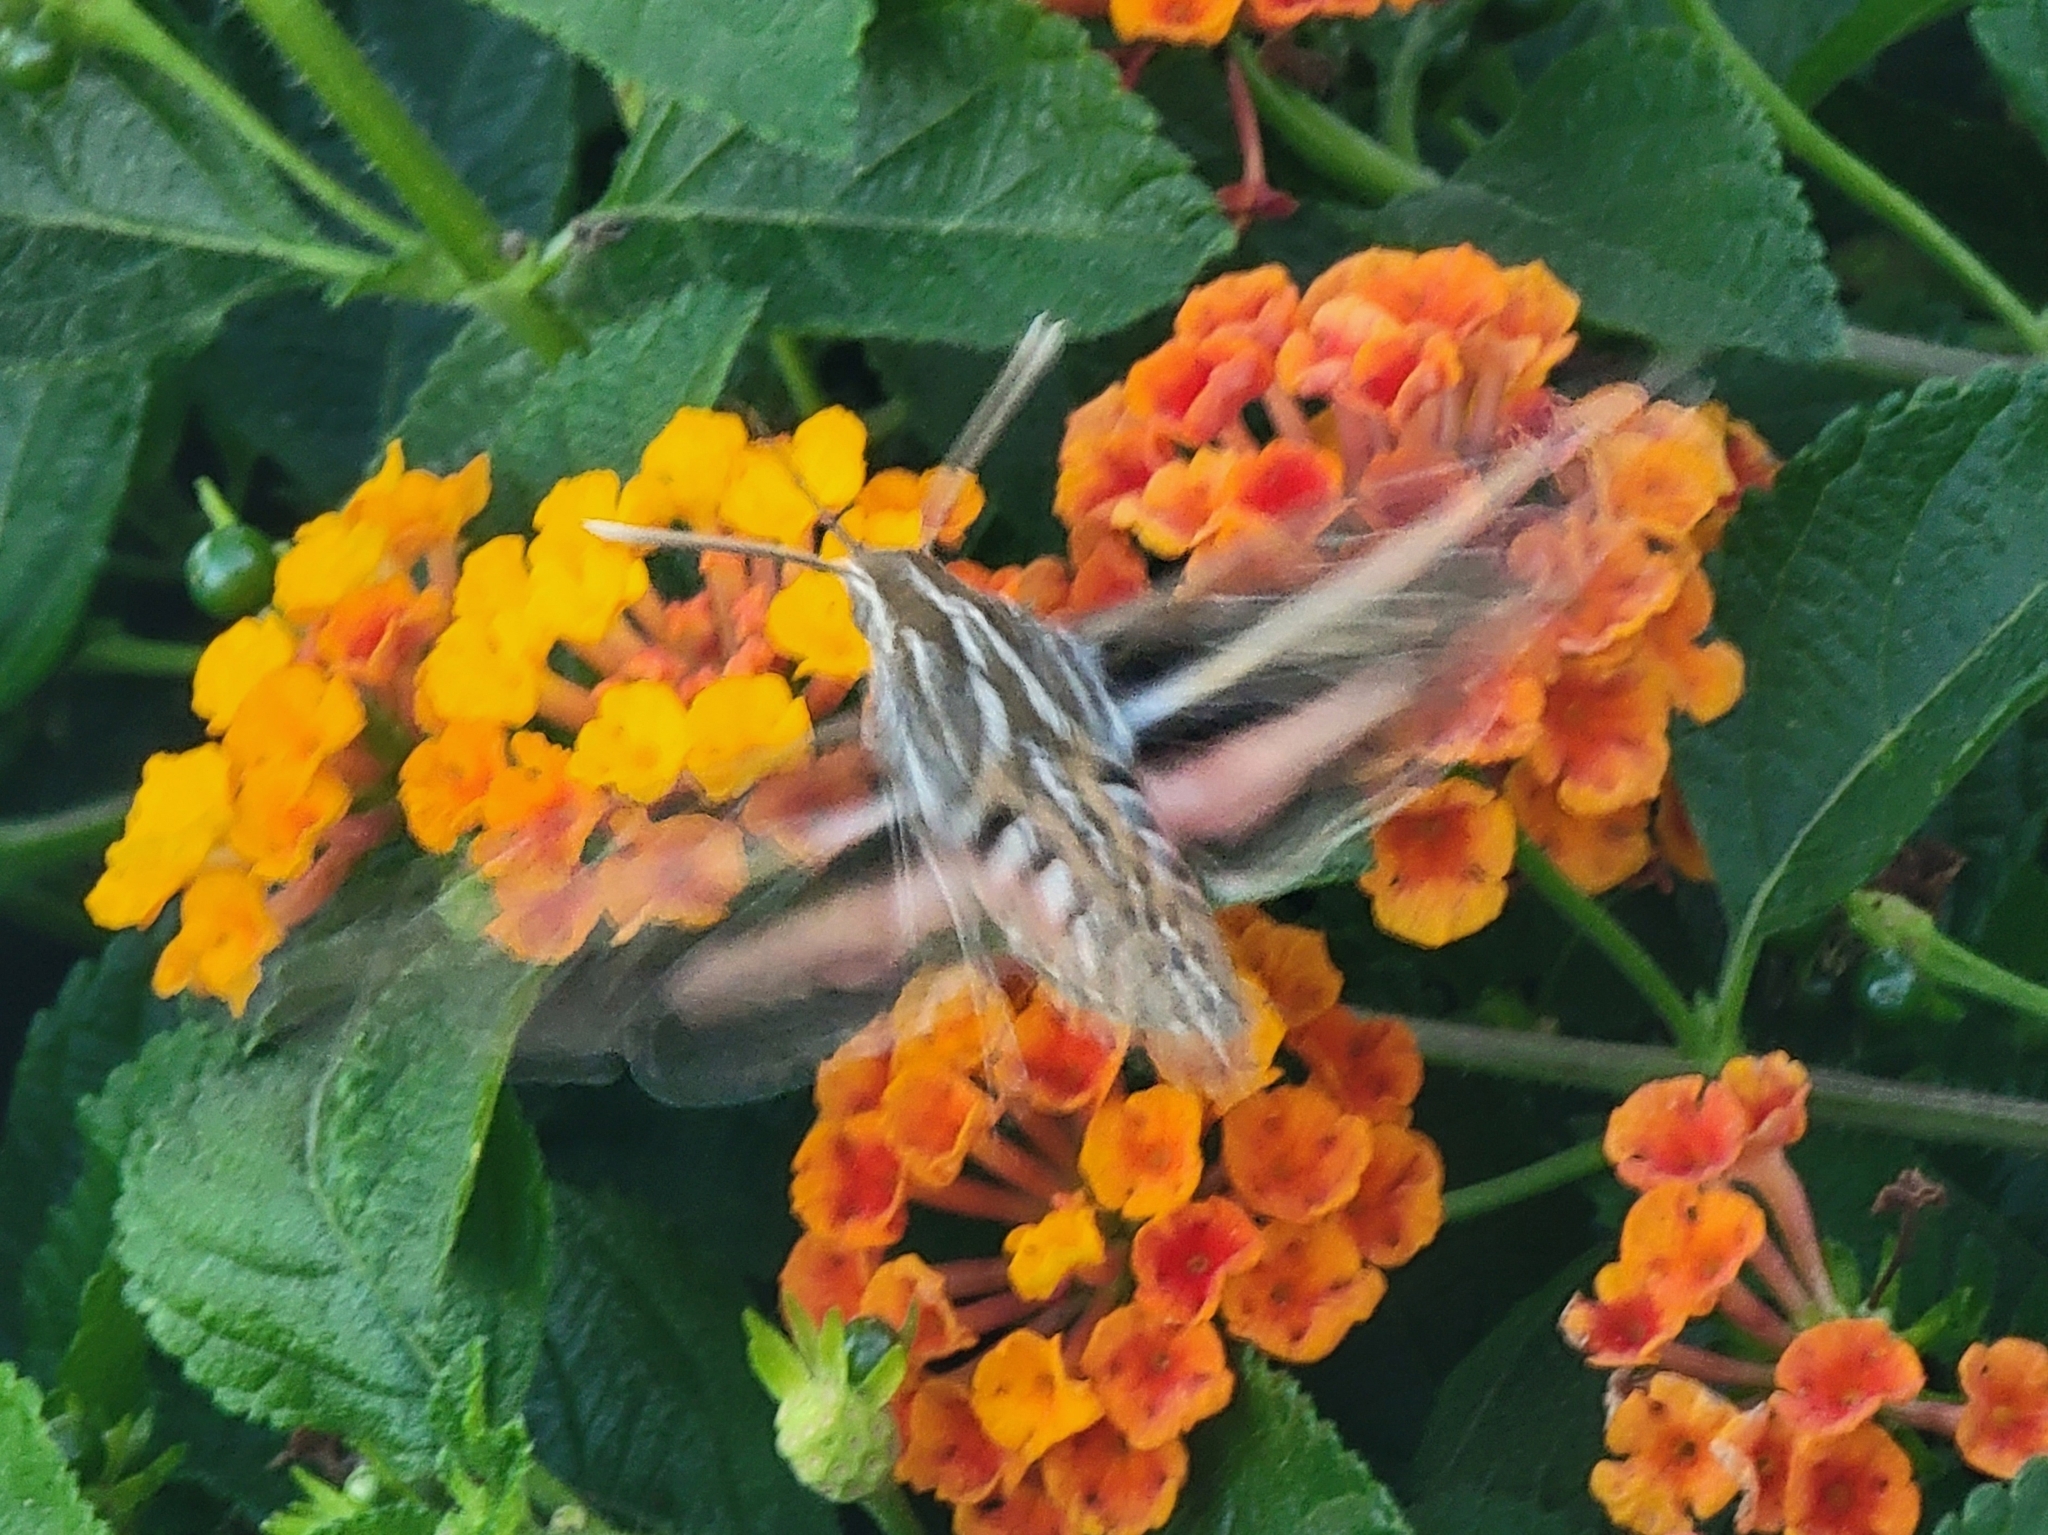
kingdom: Animalia
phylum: Arthropoda
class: Insecta
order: Lepidoptera
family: Sphingidae
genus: Hyles
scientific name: Hyles lineata
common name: White-lined sphinx
